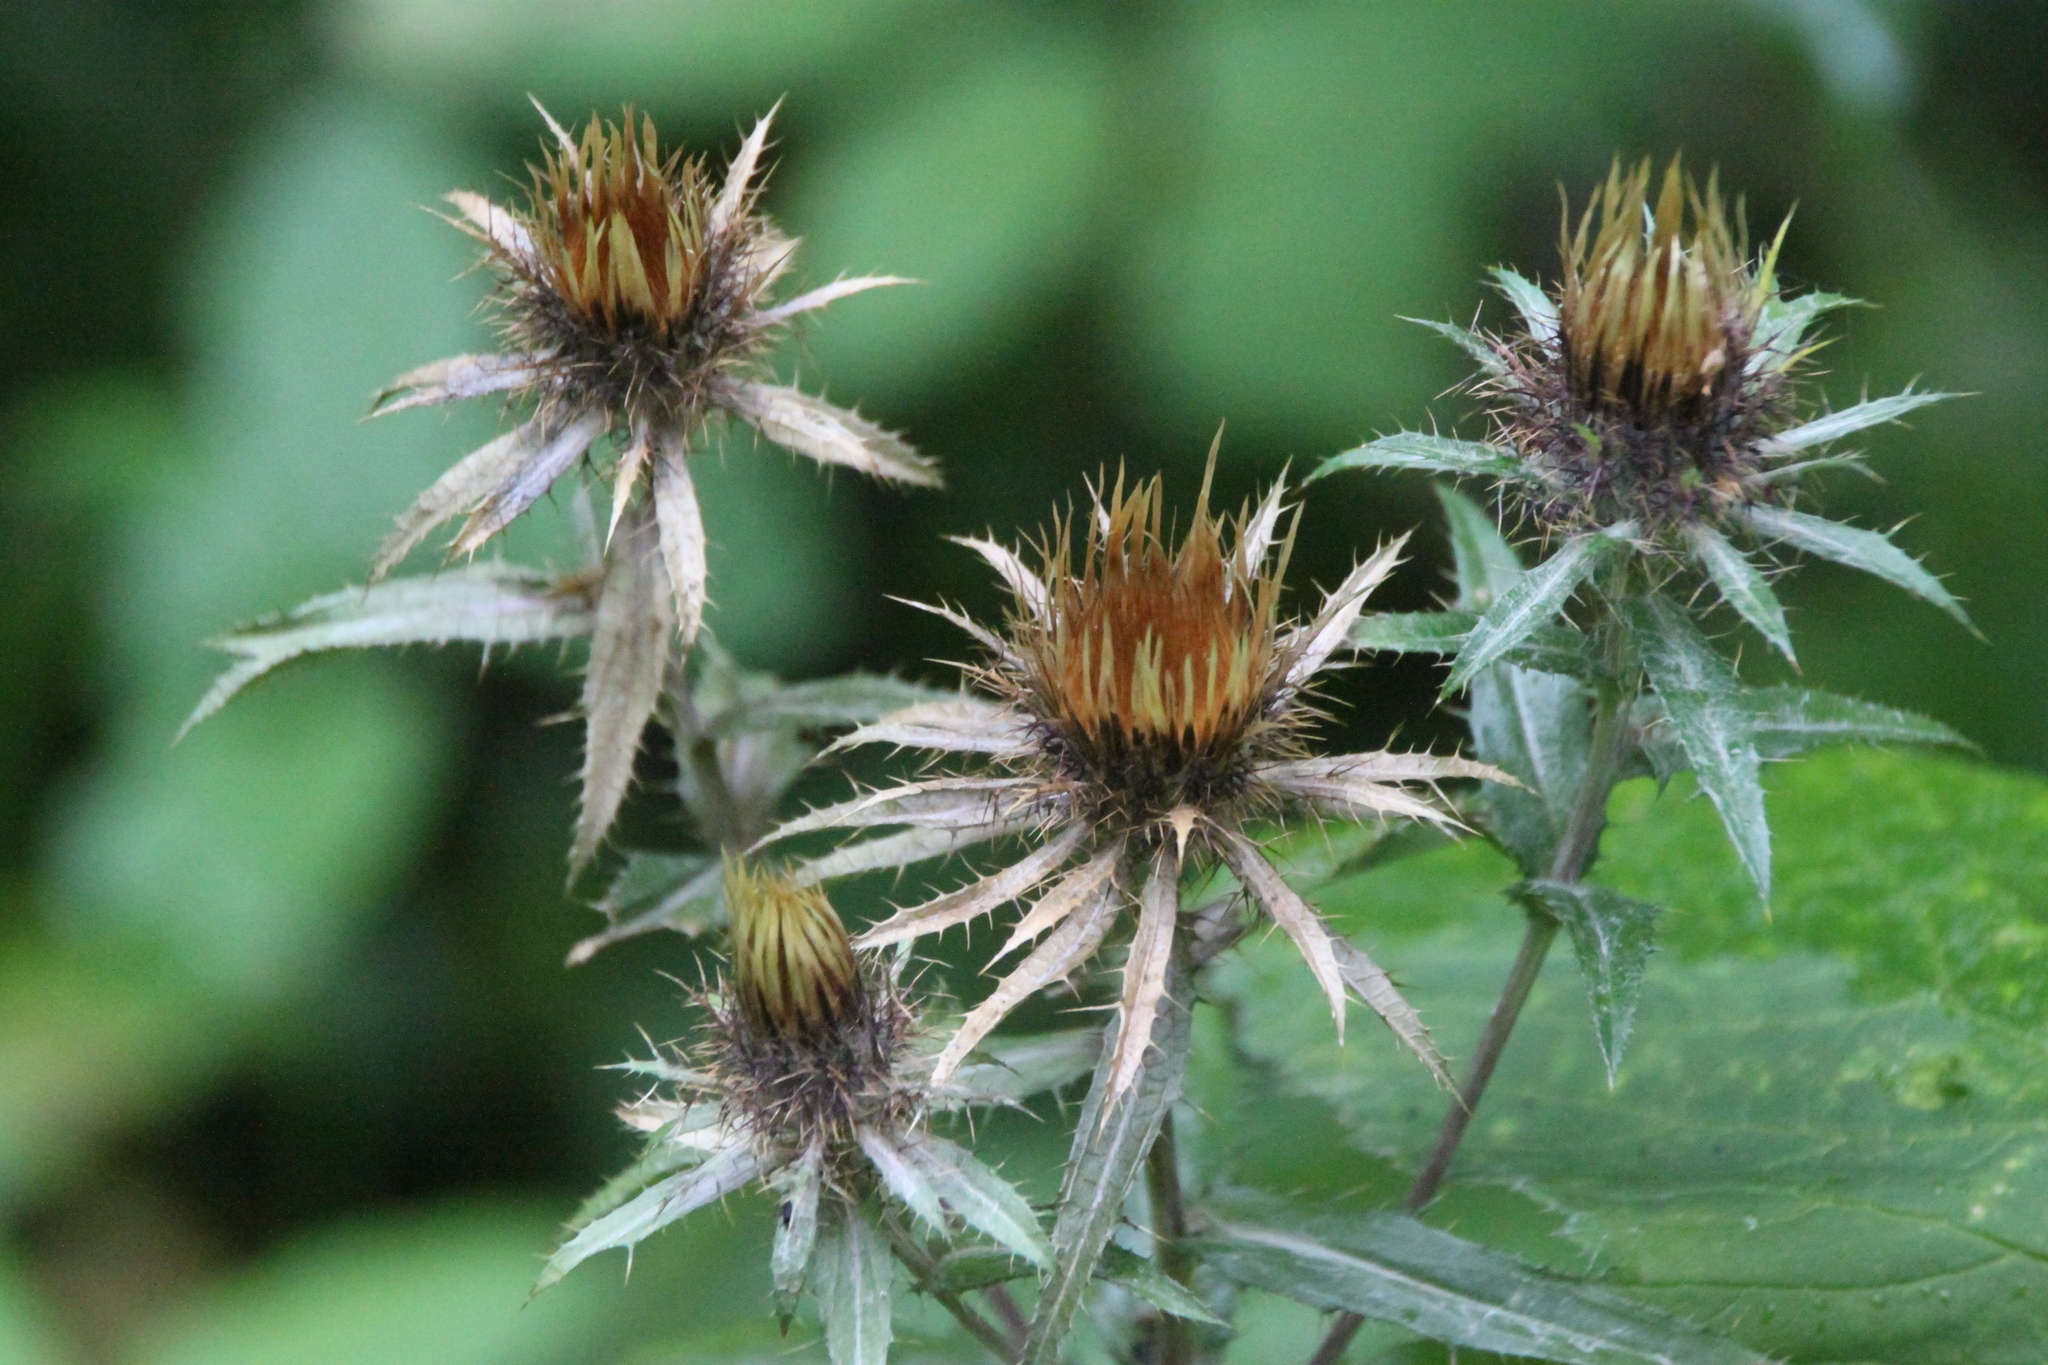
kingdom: Plantae
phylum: Tracheophyta
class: Magnoliopsida
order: Asterales
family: Asteraceae
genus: Carlina
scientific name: Carlina biebersteinii
